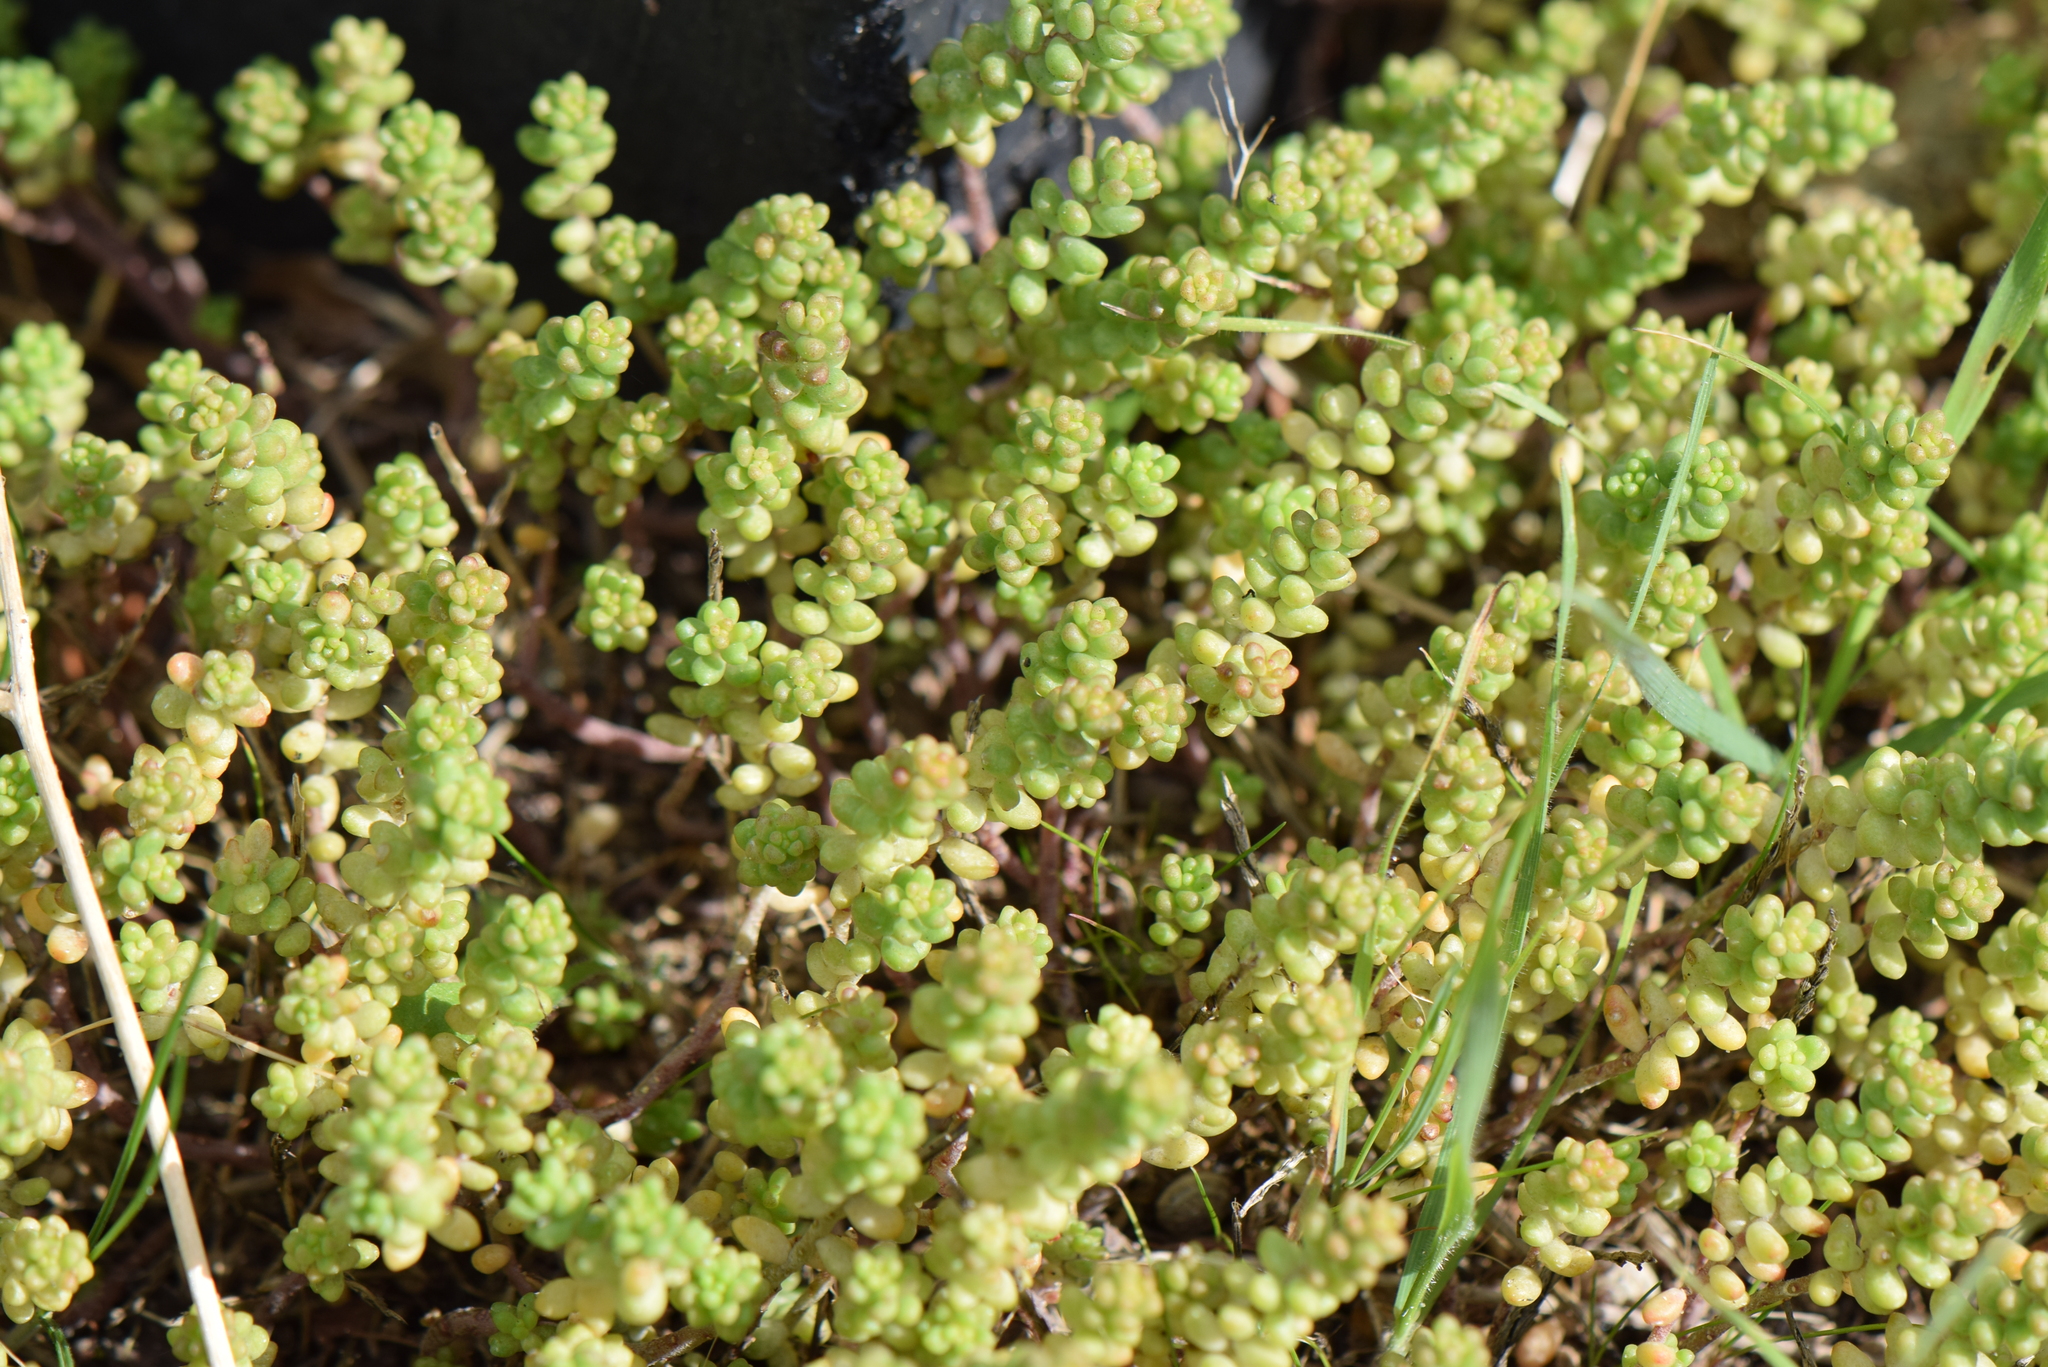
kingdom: Plantae
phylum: Tracheophyta
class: Magnoliopsida
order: Saxifragales
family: Crassulaceae
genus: Sedum
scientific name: Sedum album
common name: White stonecrop
